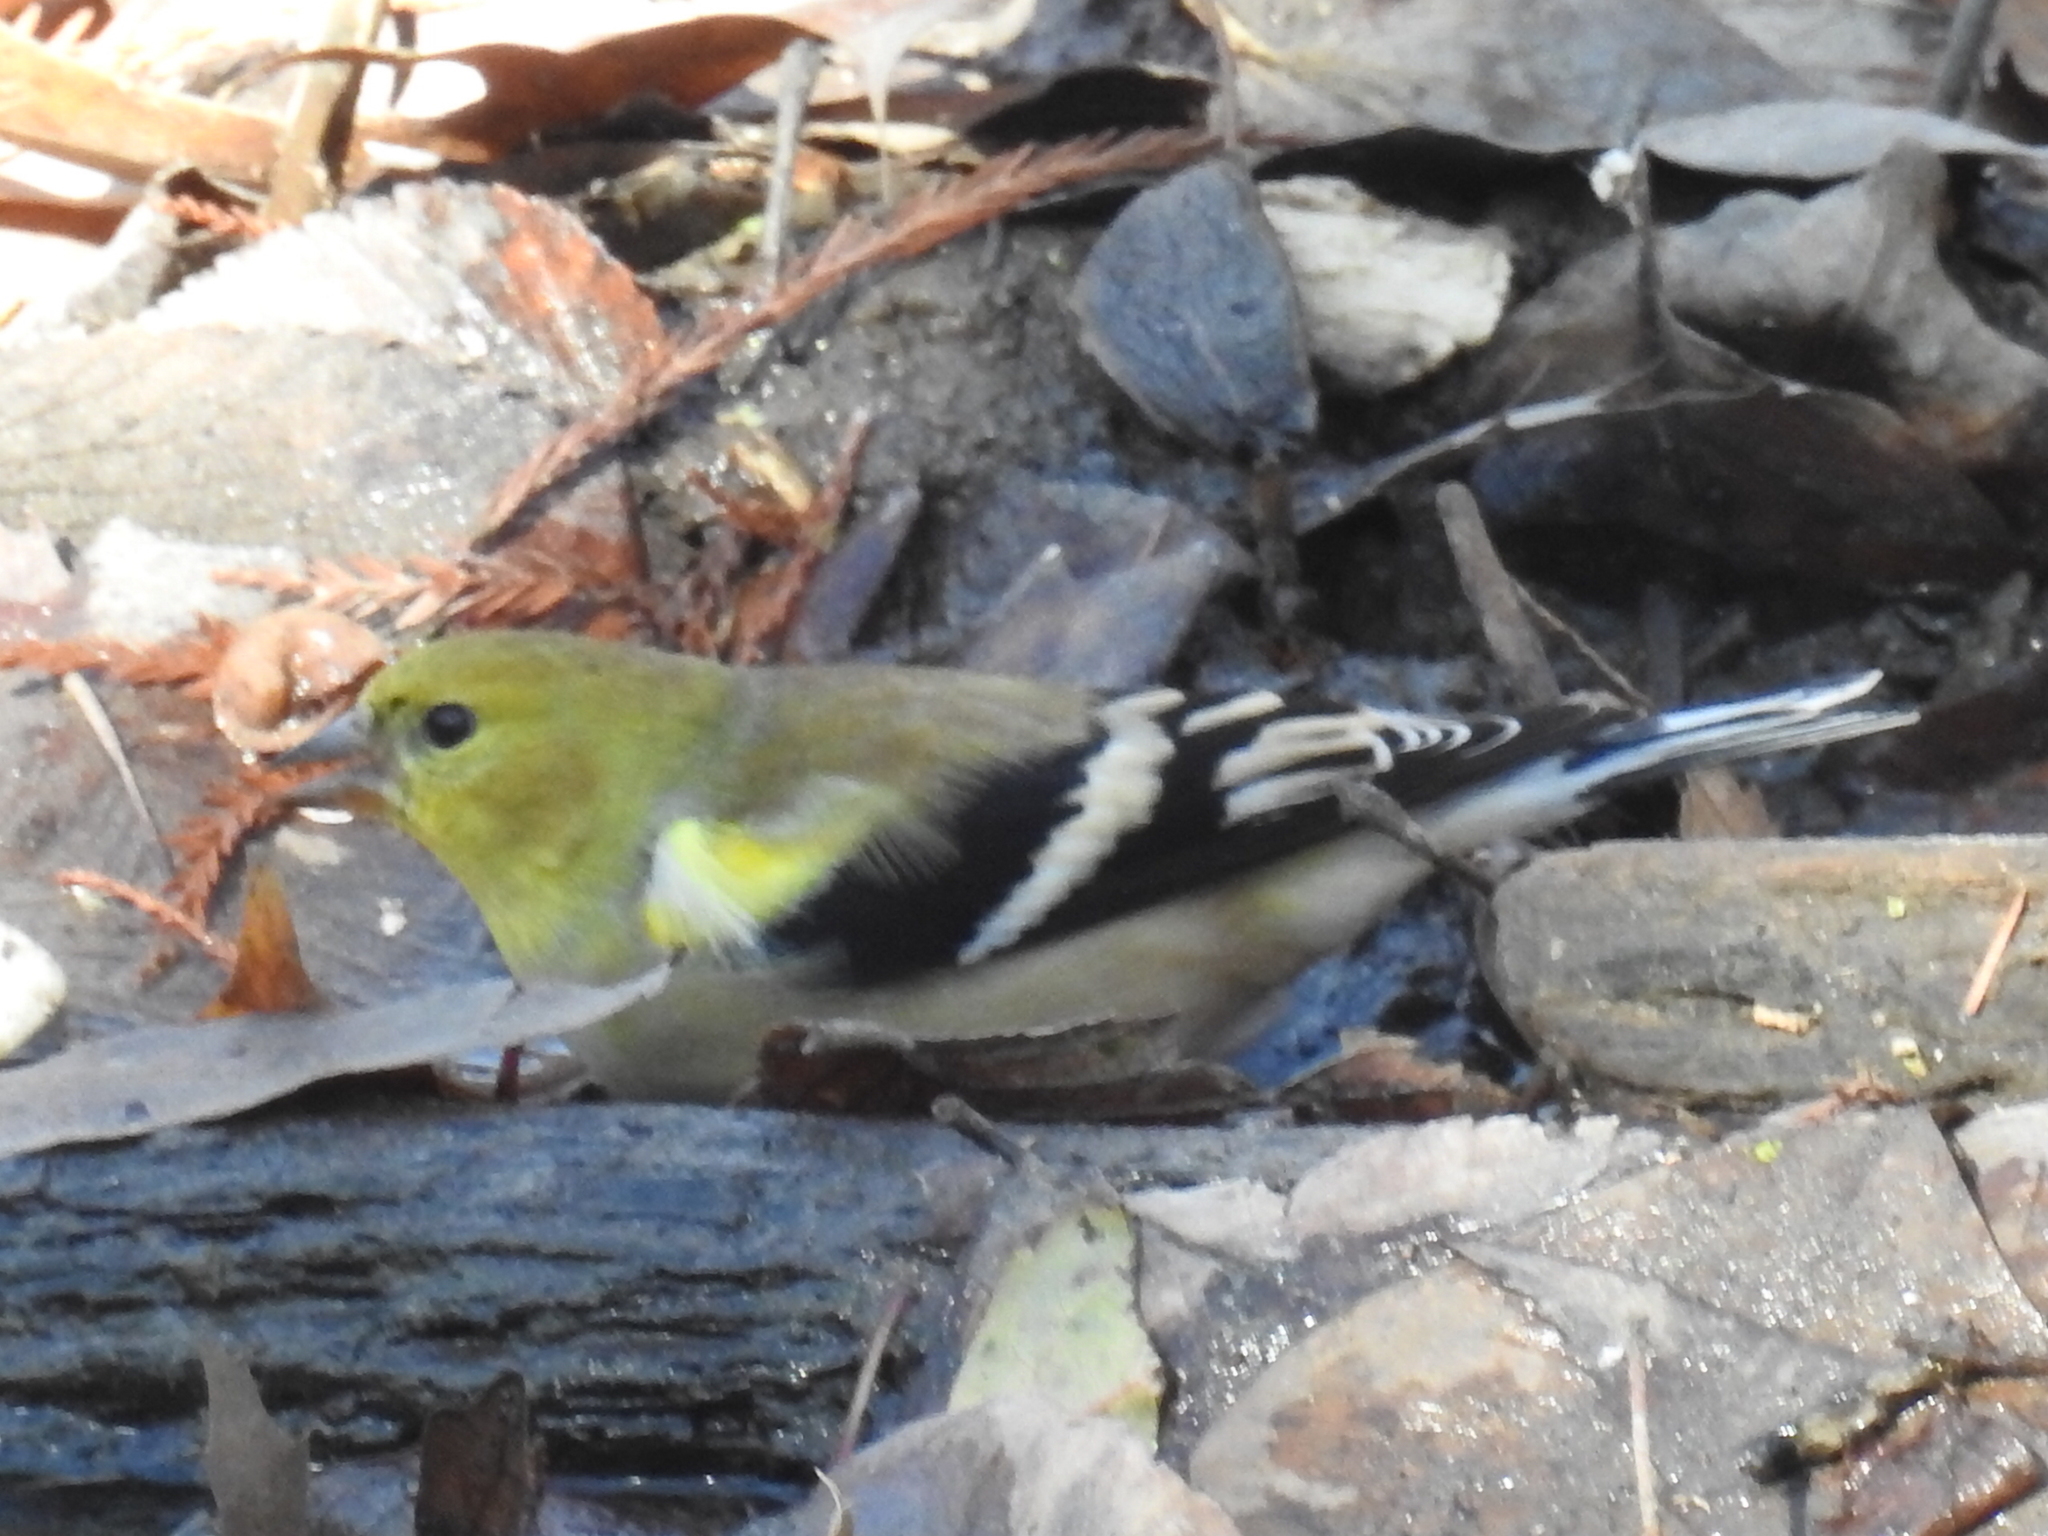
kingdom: Animalia
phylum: Chordata
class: Aves
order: Passeriformes
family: Fringillidae
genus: Spinus
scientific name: Spinus tristis
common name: American goldfinch
